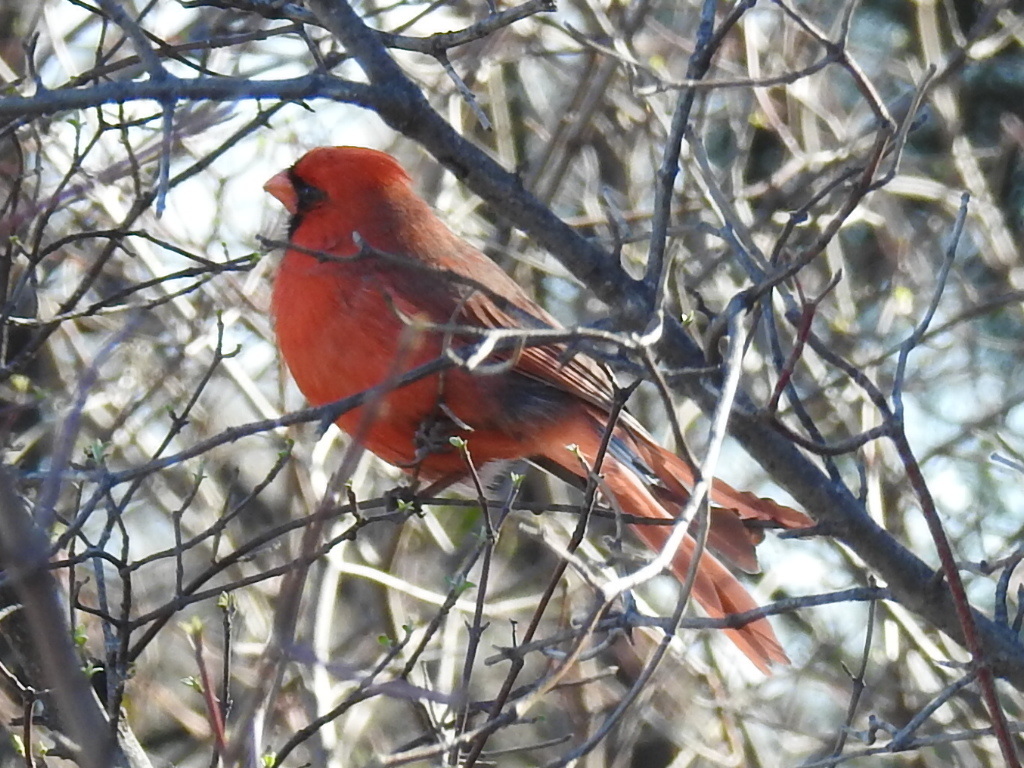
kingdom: Animalia
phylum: Chordata
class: Aves
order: Passeriformes
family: Cardinalidae
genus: Cardinalis
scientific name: Cardinalis cardinalis
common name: Northern cardinal
